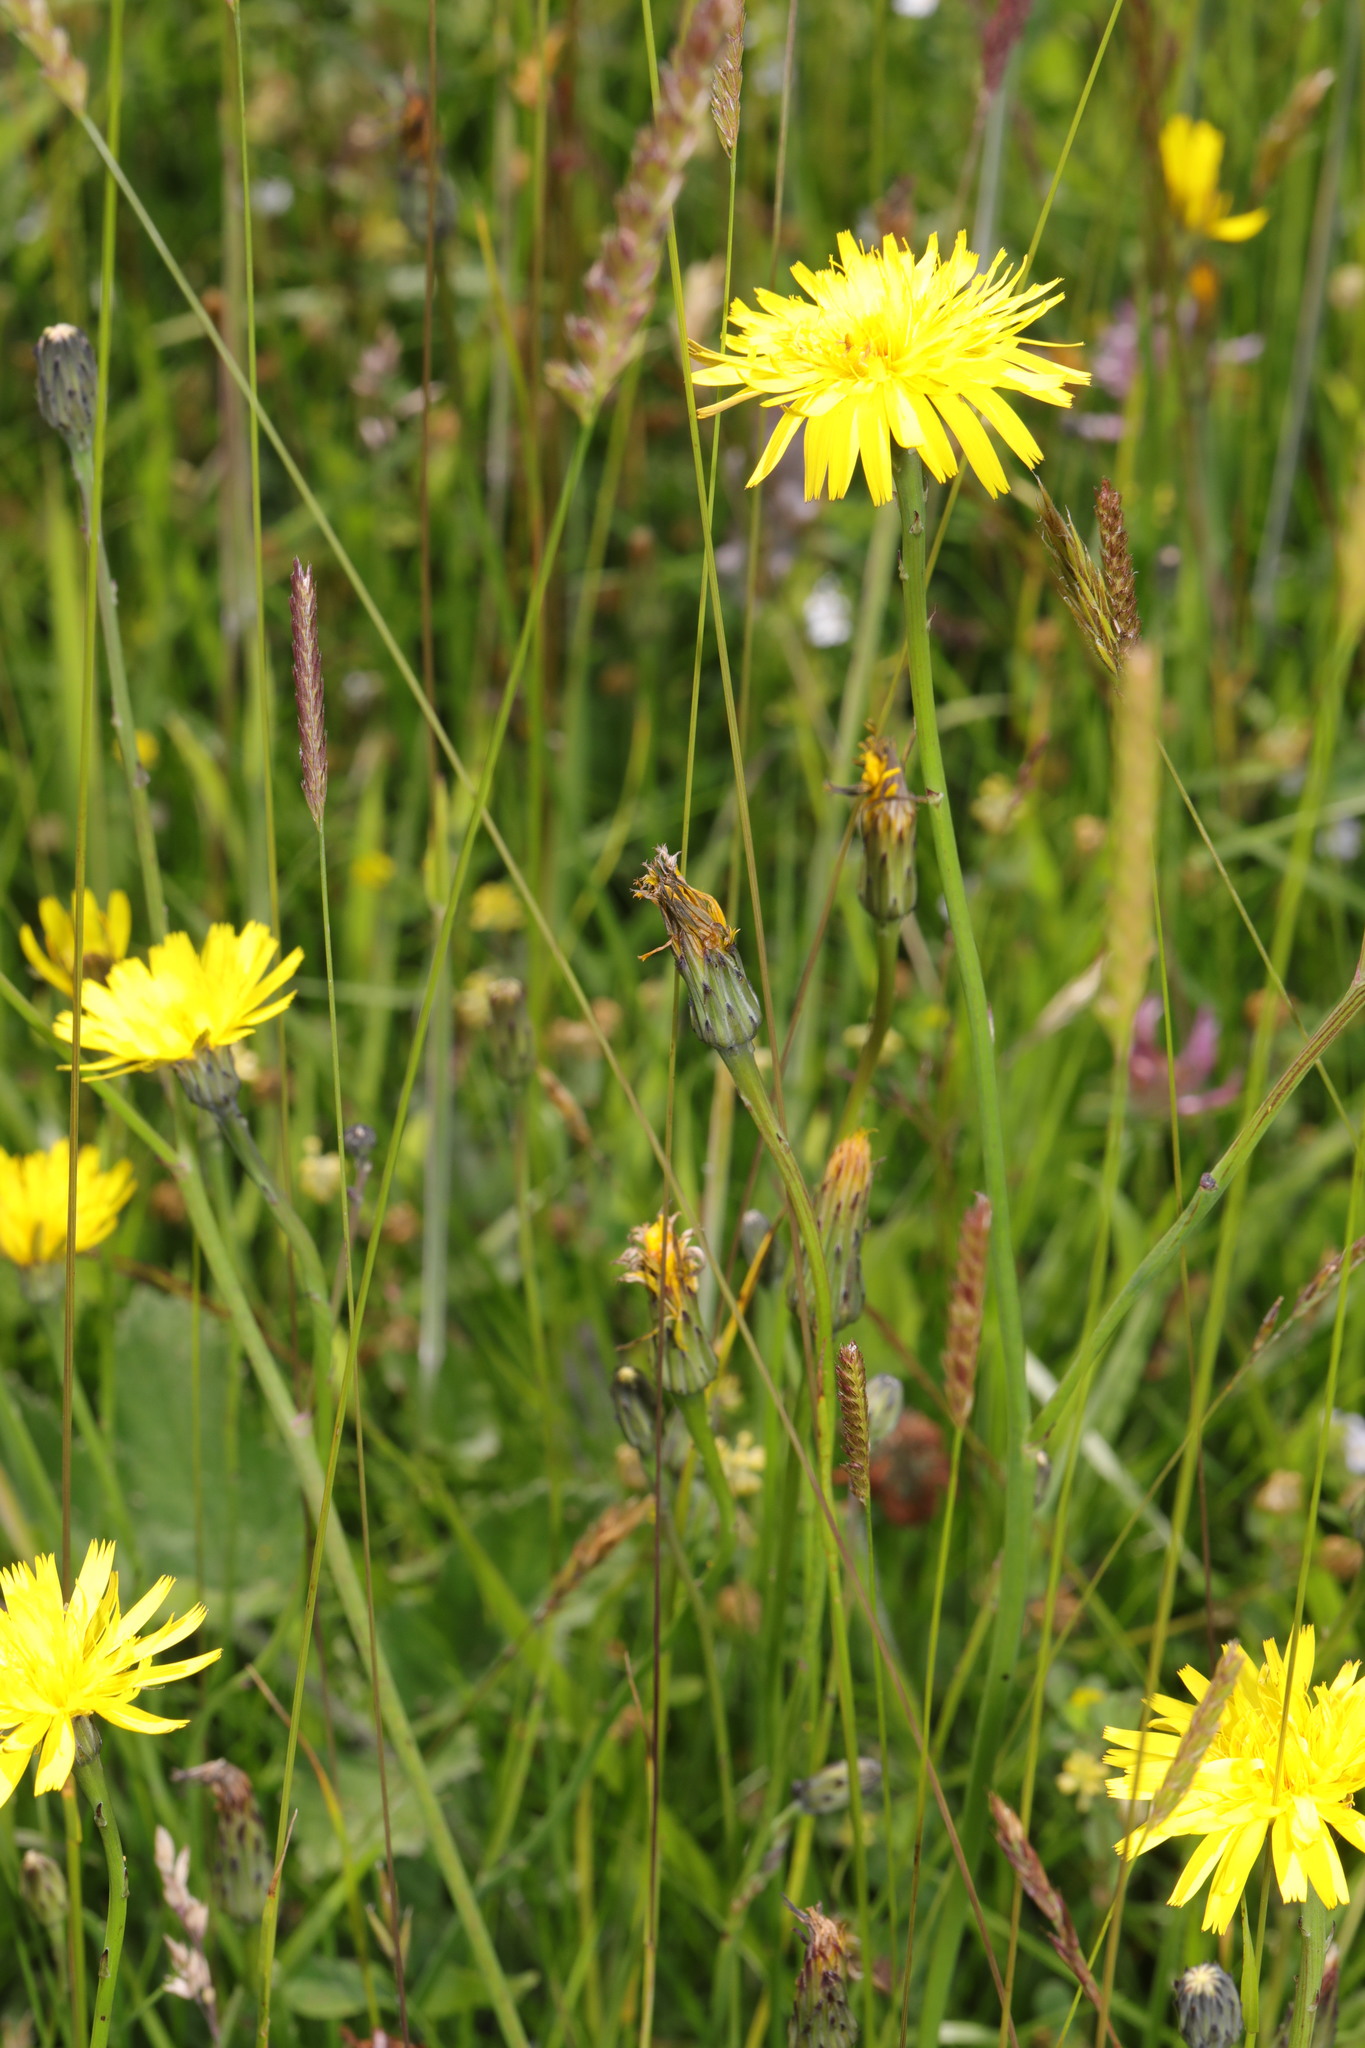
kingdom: Plantae
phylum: Tracheophyta
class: Magnoliopsida
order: Asterales
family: Asteraceae
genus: Hypochaeris
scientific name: Hypochaeris radicata
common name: Flatweed
